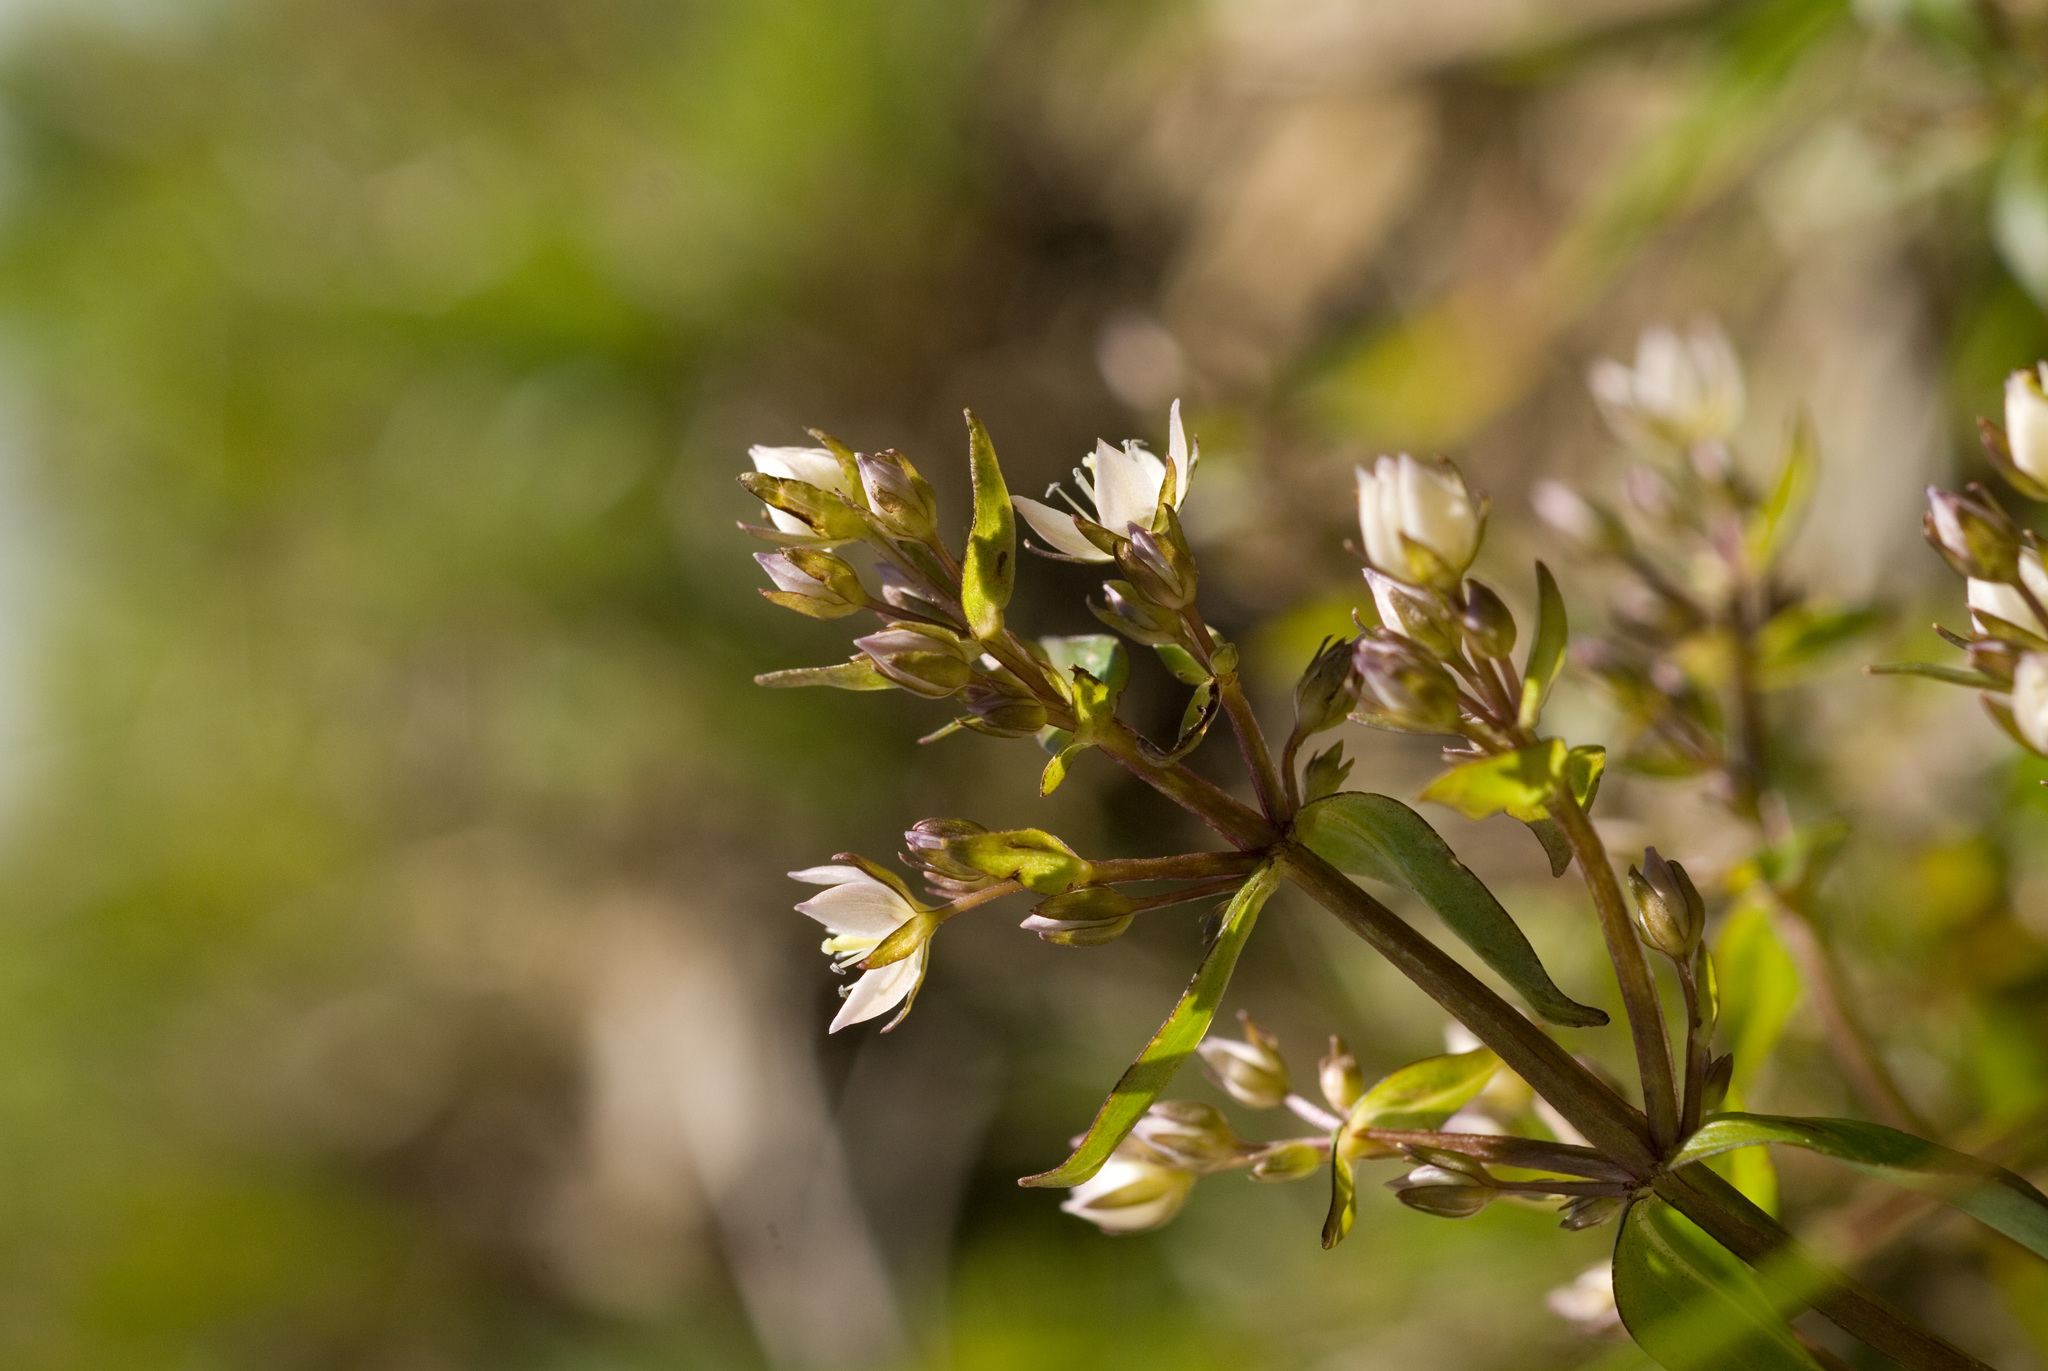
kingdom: Plantae
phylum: Tracheophyta
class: Magnoliopsida
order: Gentianales
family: Gentianaceae
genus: Swertia
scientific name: Swertia macrosperma
